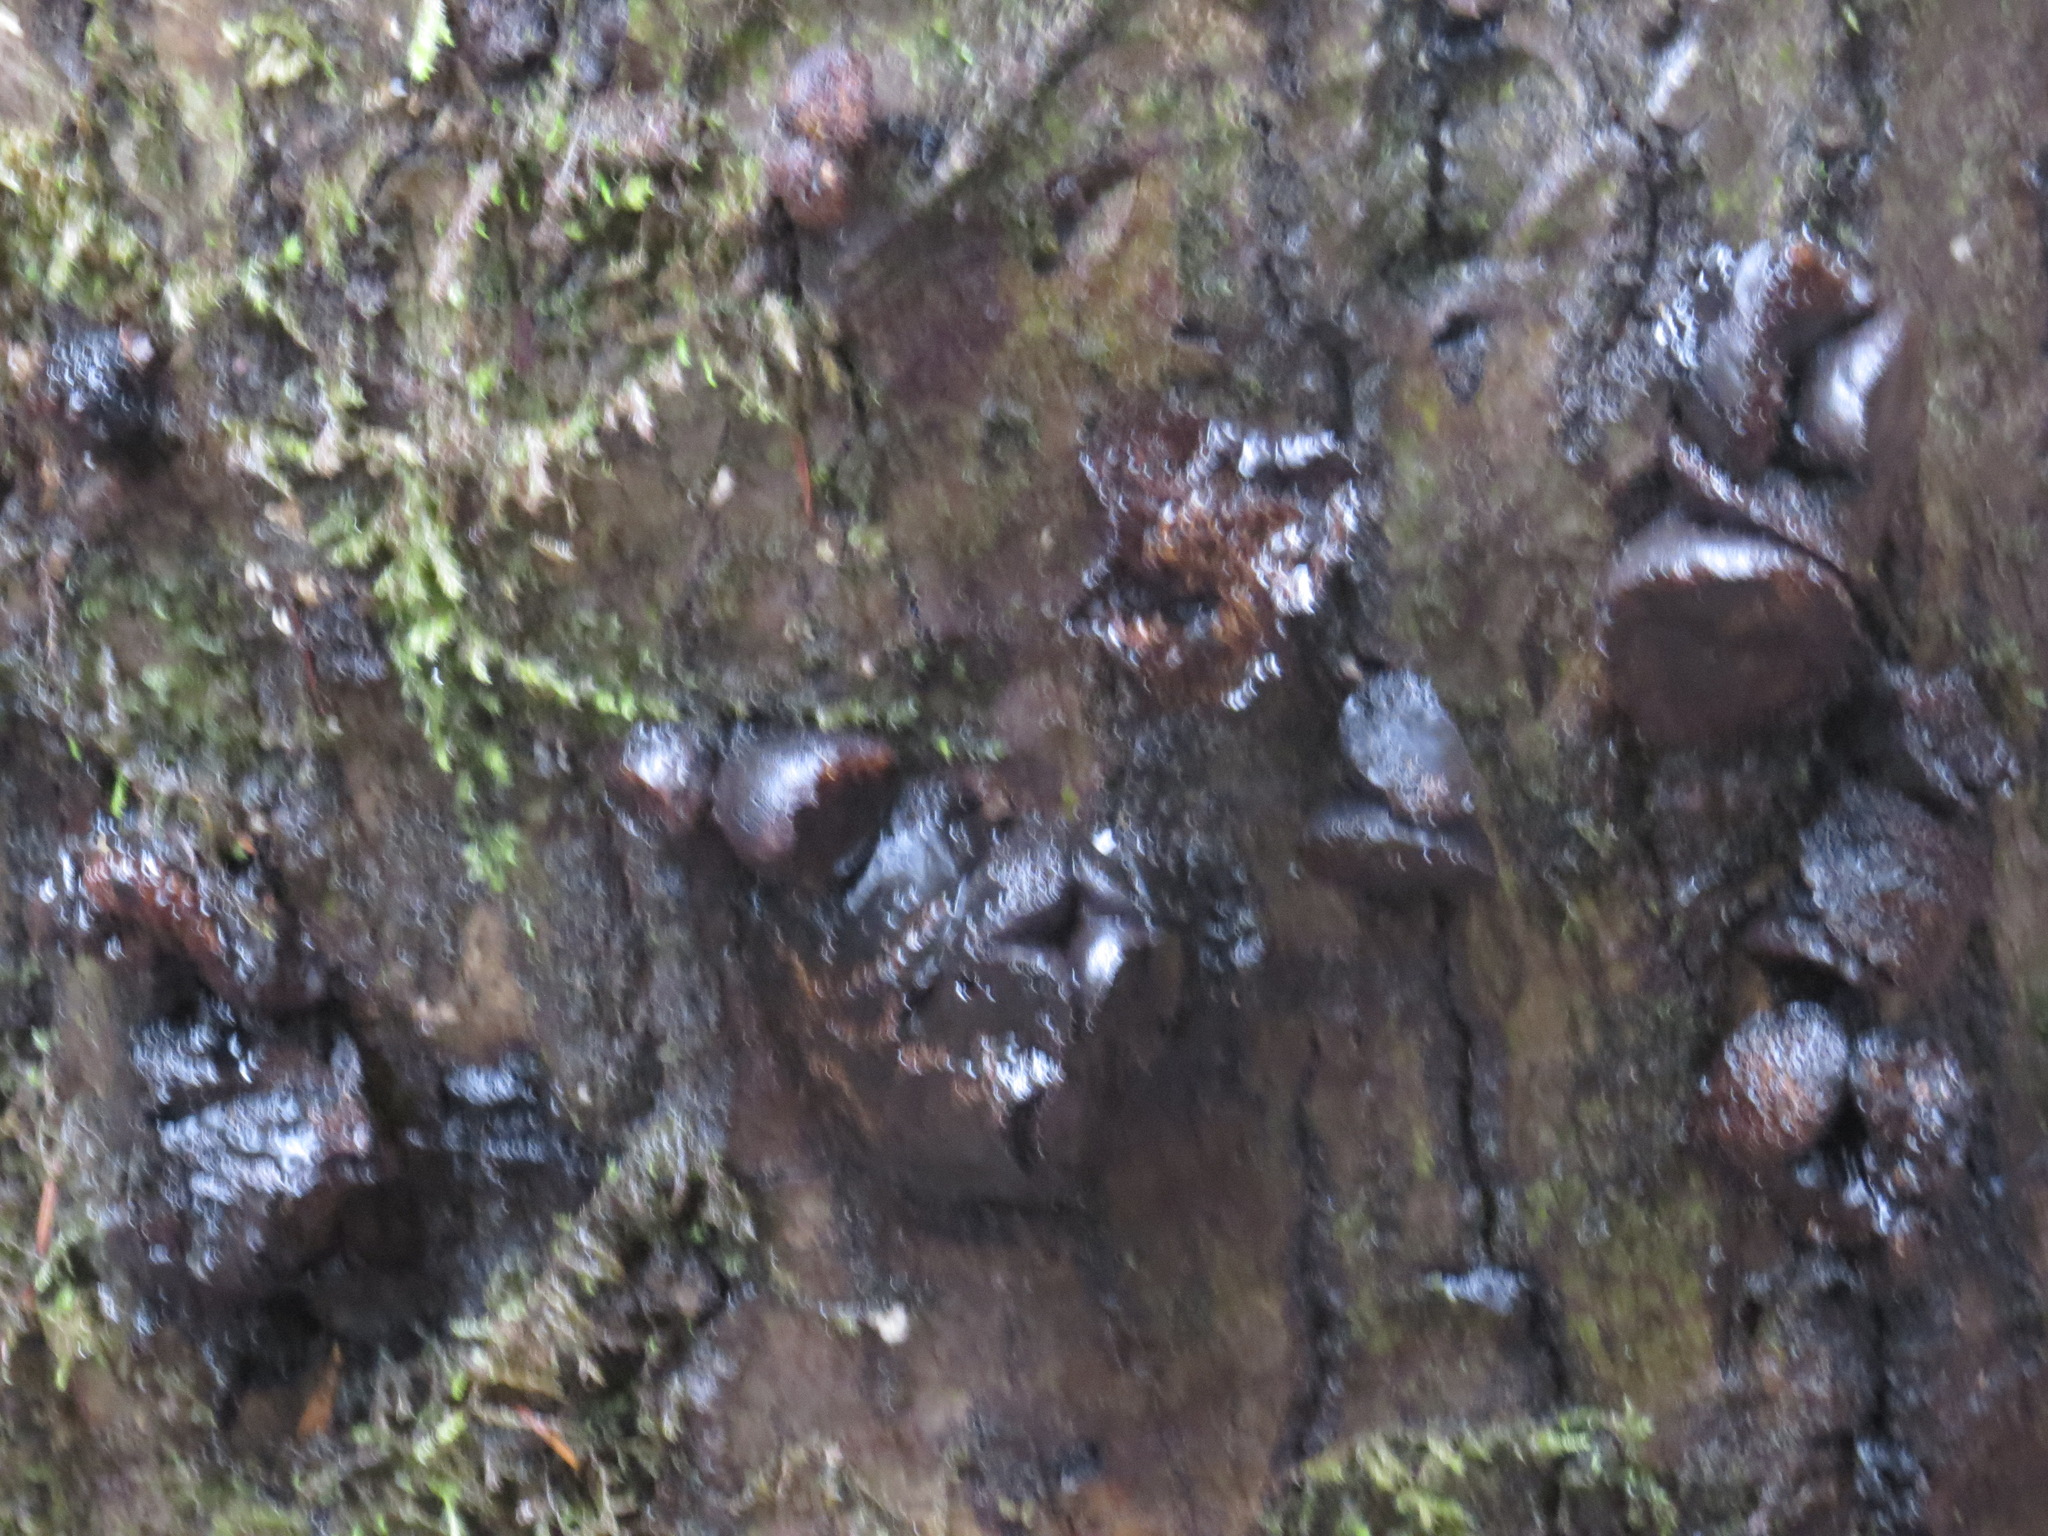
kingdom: Fungi
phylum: Ascomycota
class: Leotiomycetes
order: Phacidiales
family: Phacidiaceae
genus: Bulgaria
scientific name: Bulgaria inquinans
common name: Black bulgar
